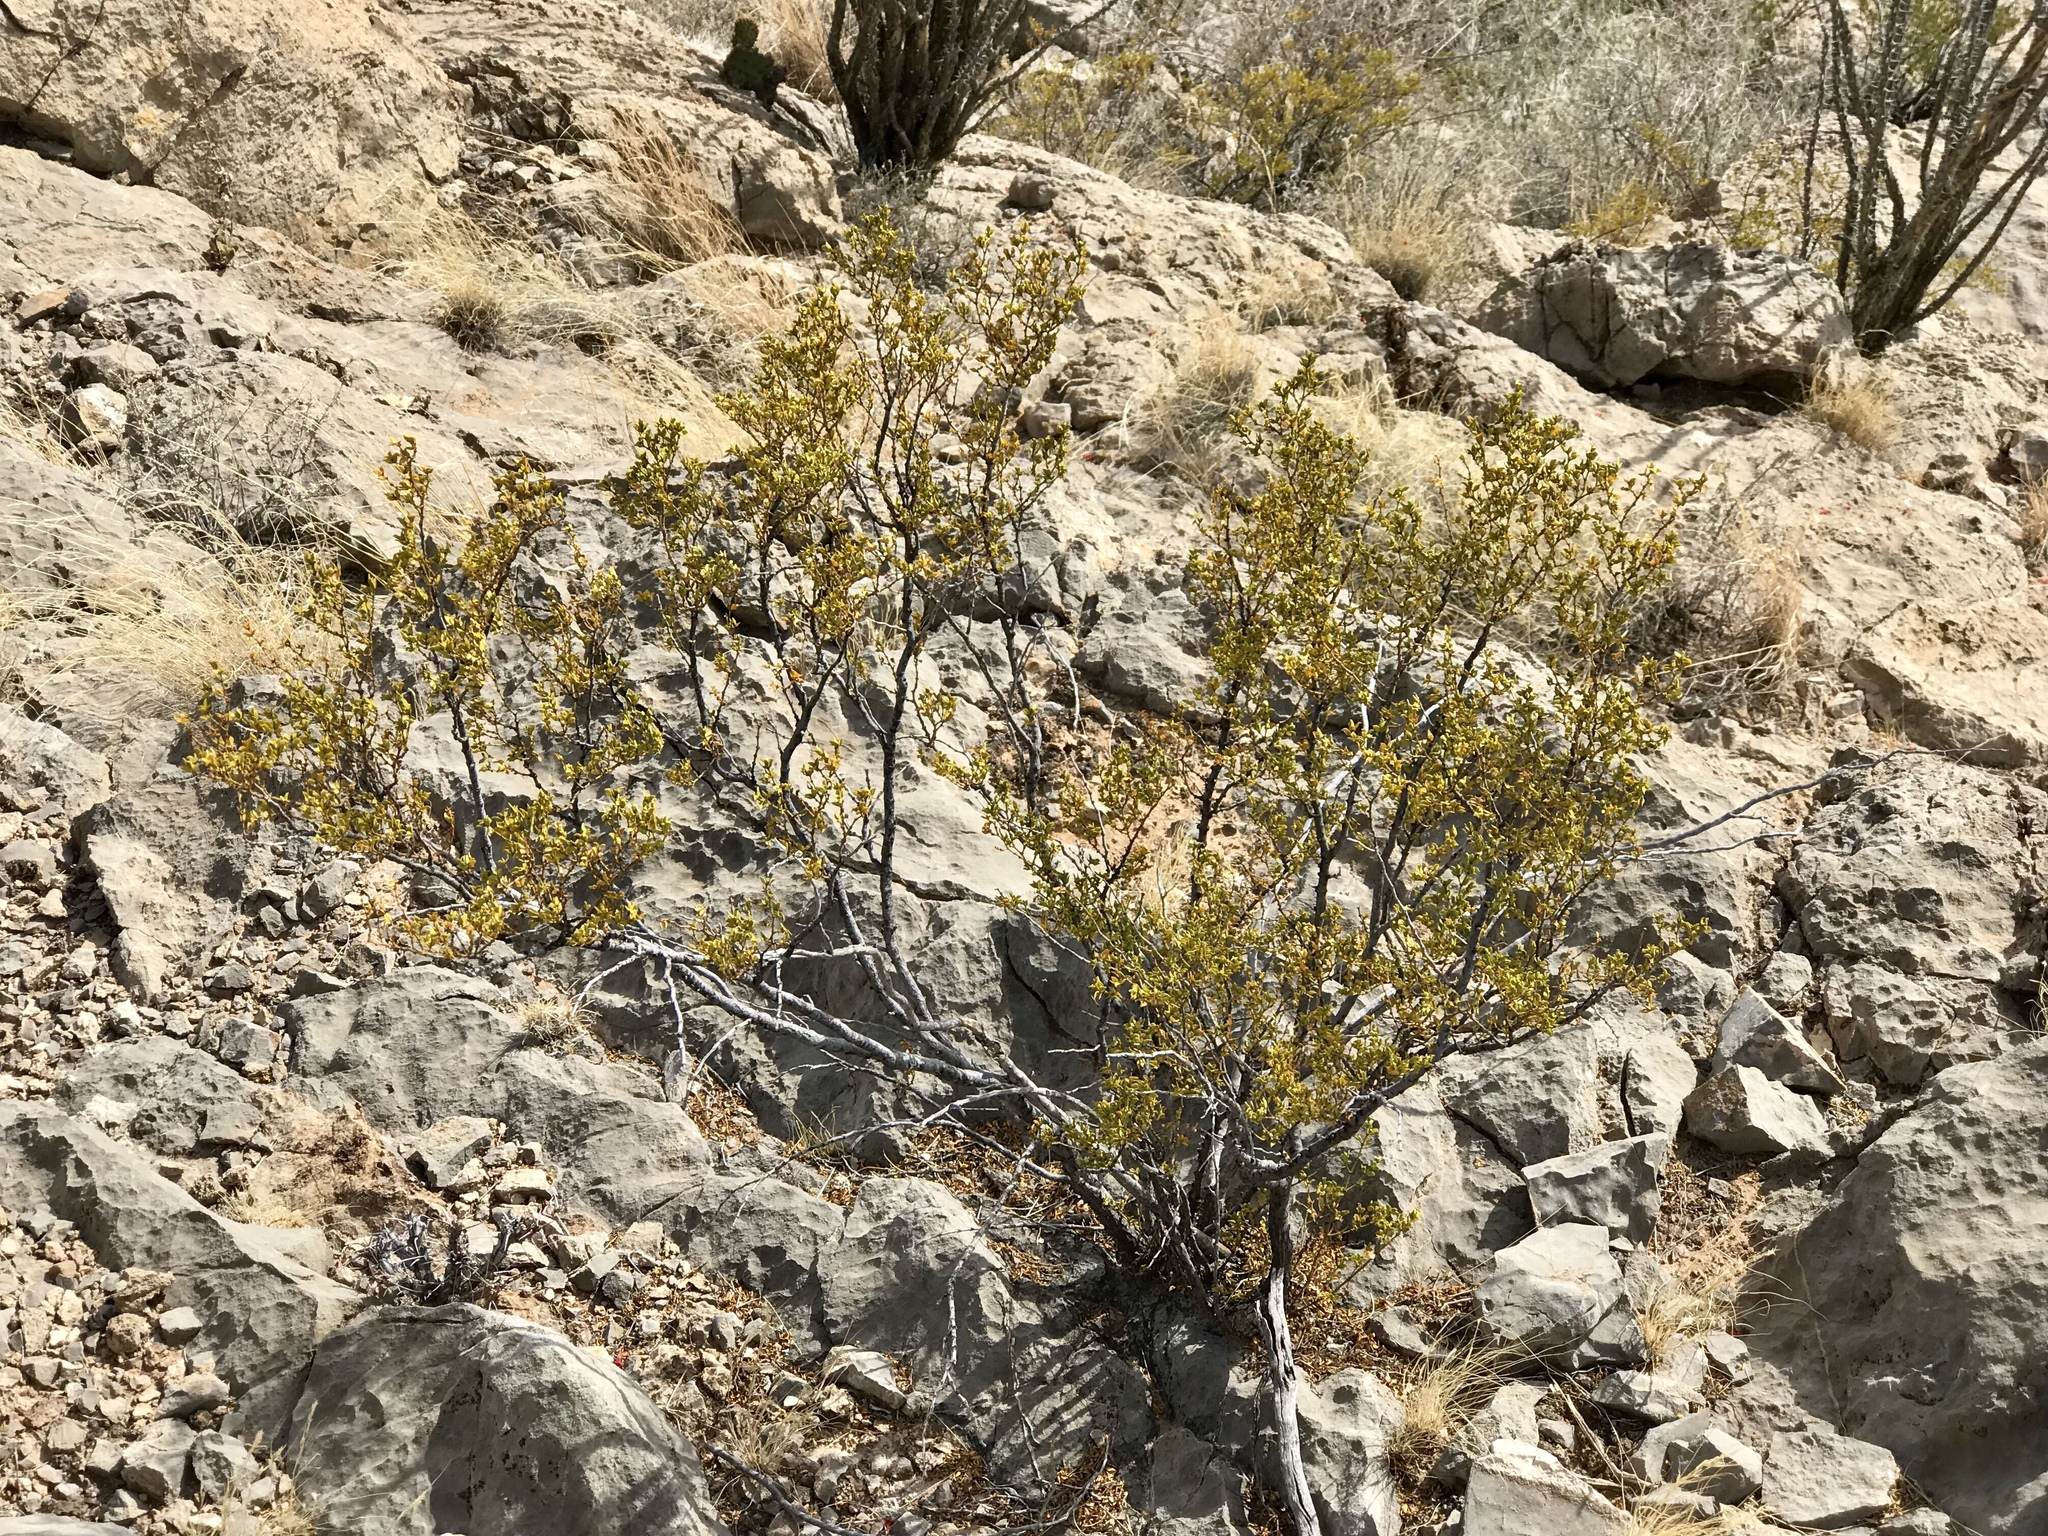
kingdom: Plantae
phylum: Tracheophyta
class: Magnoliopsida
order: Zygophyllales
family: Zygophyllaceae
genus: Larrea
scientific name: Larrea tridentata
